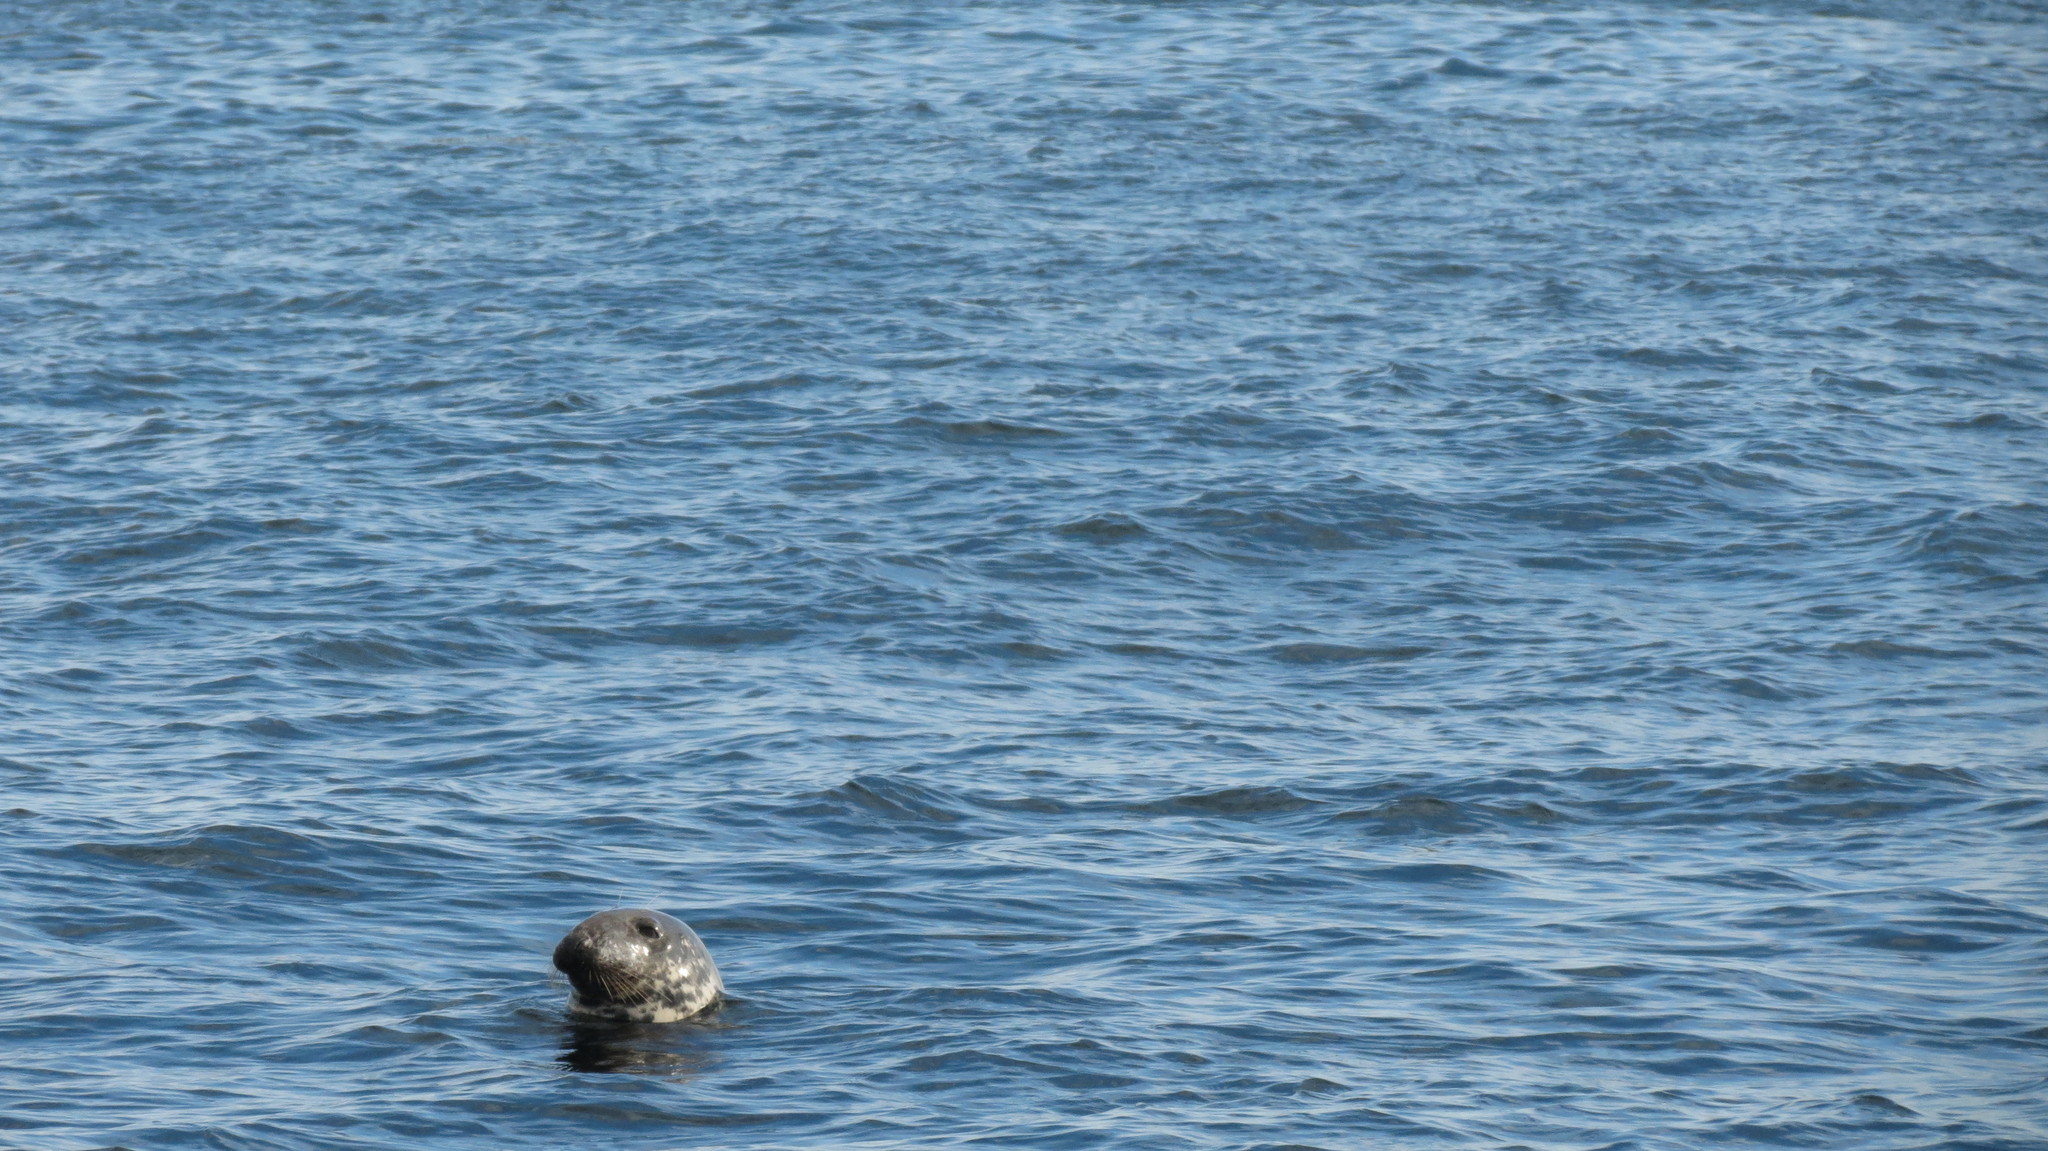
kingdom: Animalia
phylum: Chordata
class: Mammalia
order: Carnivora
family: Phocidae
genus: Halichoerus
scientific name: Halichoerus grypus
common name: Grey seal
